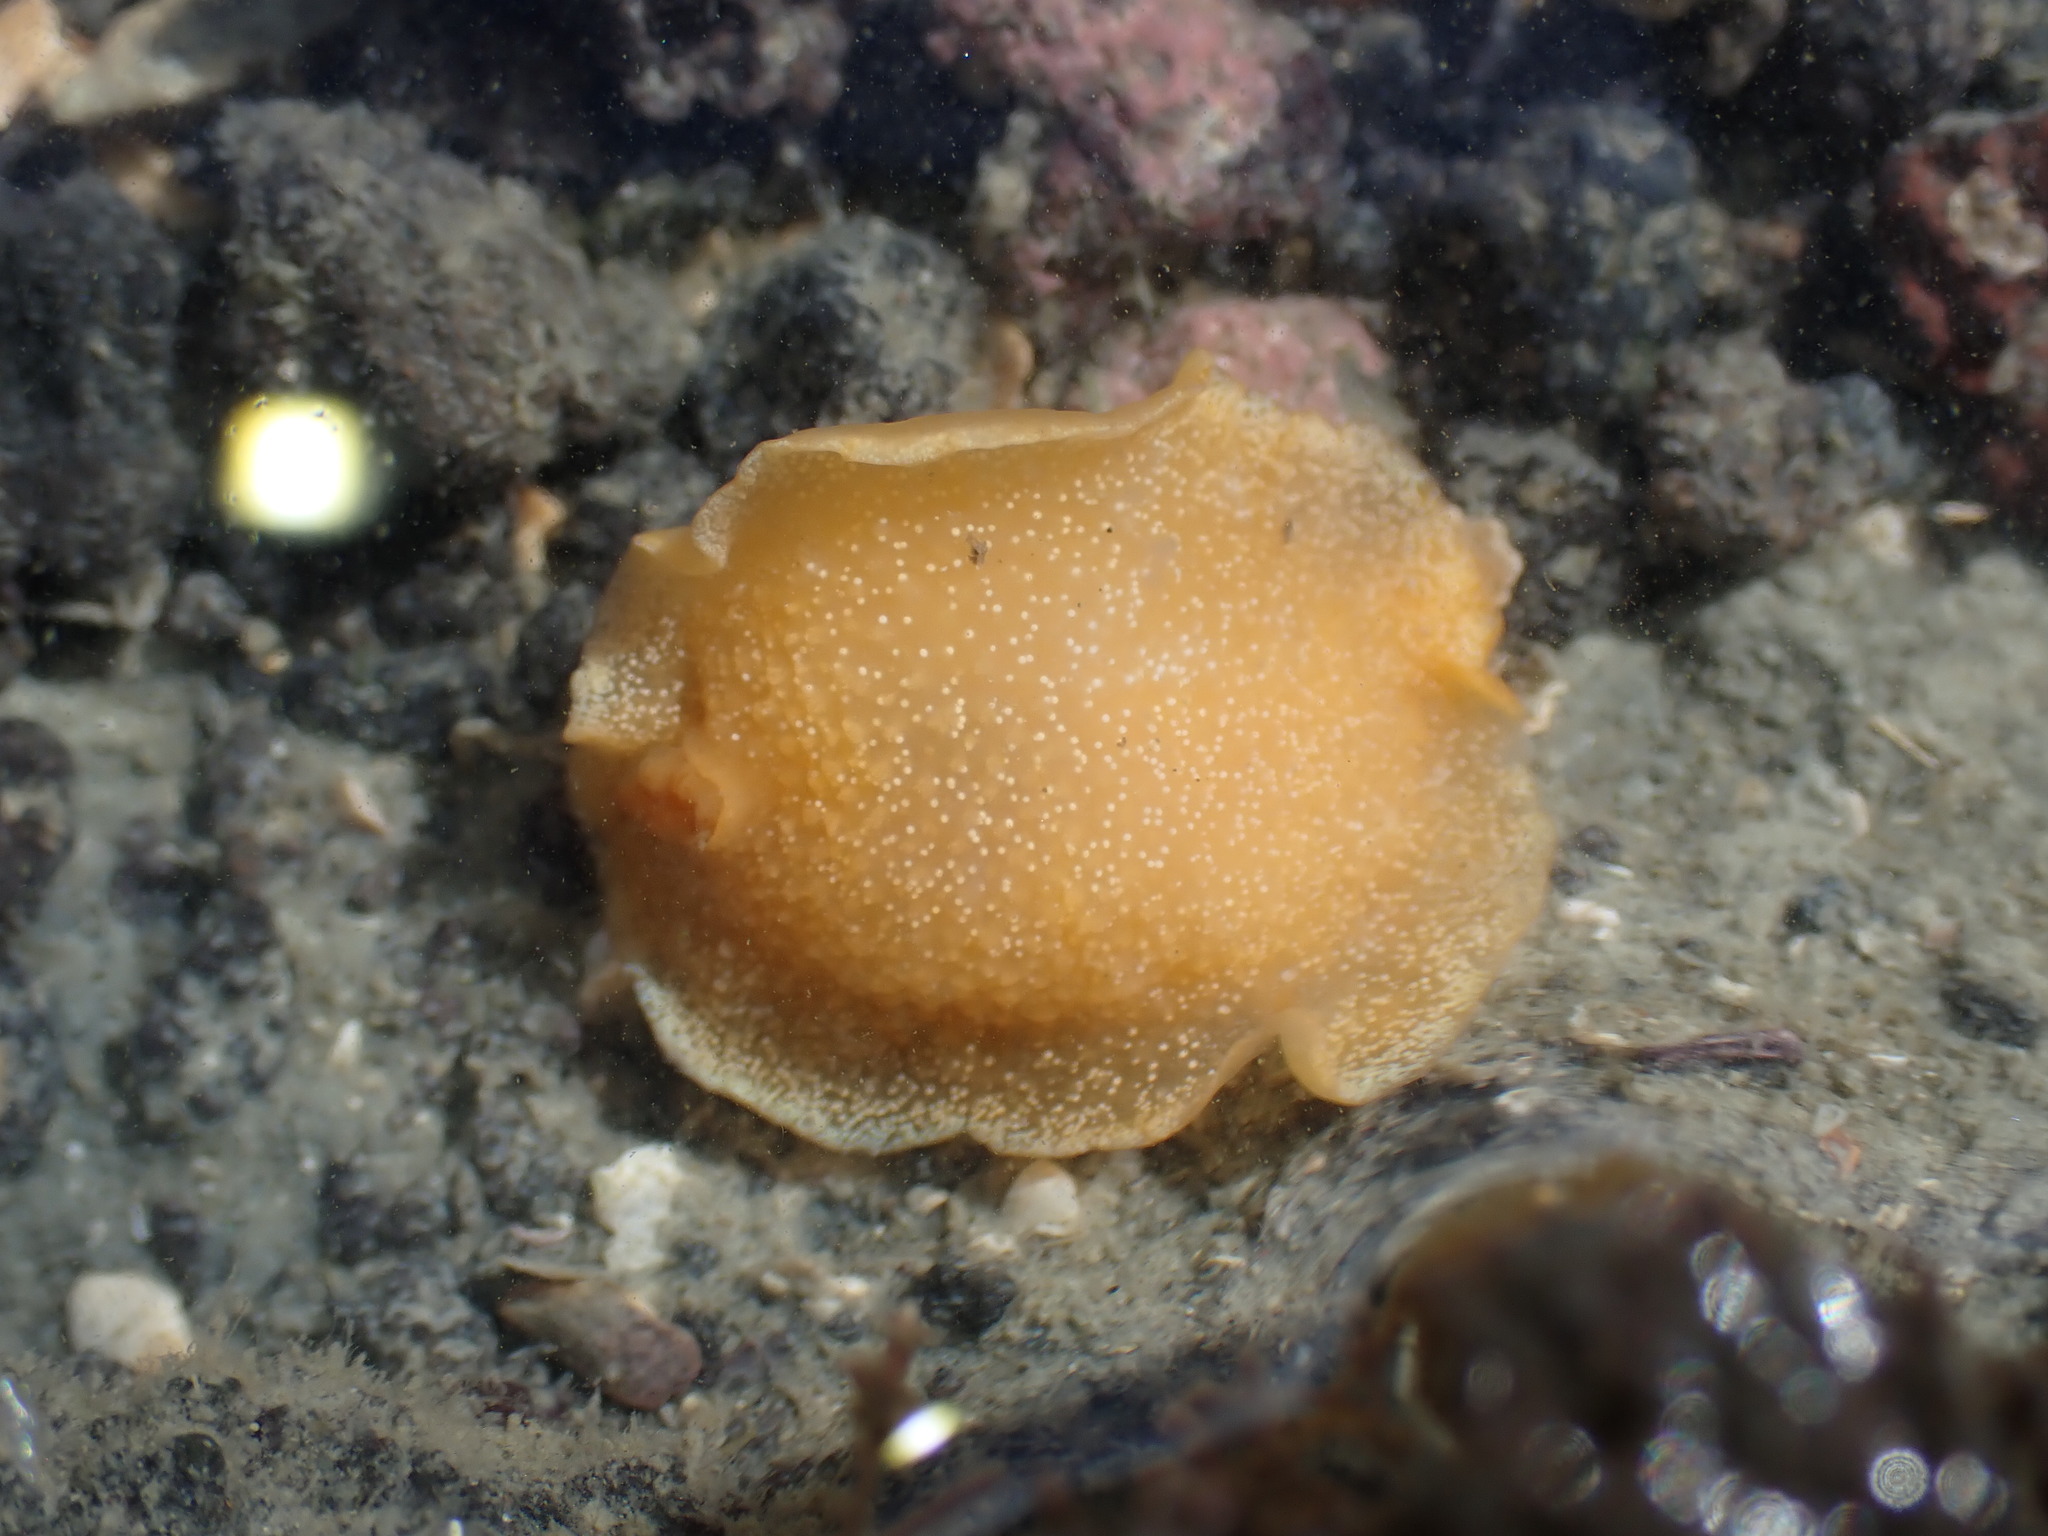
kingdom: Animalia
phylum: Mollusca
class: Gastropoda
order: Nudibranchia
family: Dendrodorididae
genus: Dendrodoris
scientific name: Dendrodoris citrina
